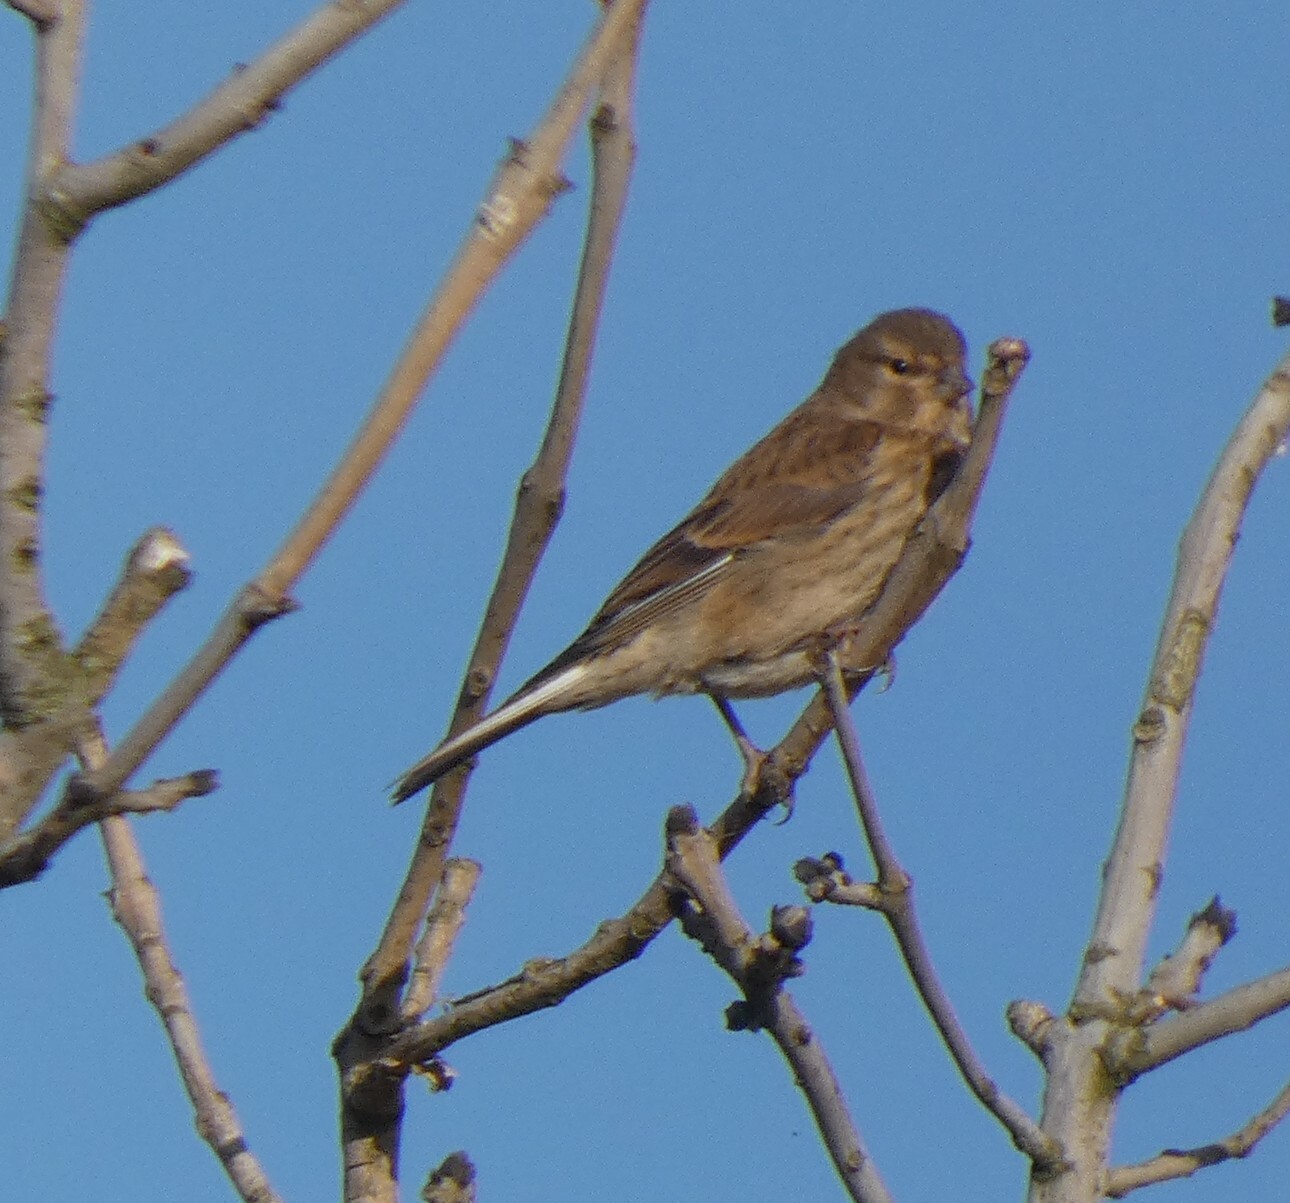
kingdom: Animalia
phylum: Chordata
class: Aves
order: Passeriformes
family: Fringillidae
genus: Linaria
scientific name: Linaria cannabina
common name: Common linnet
